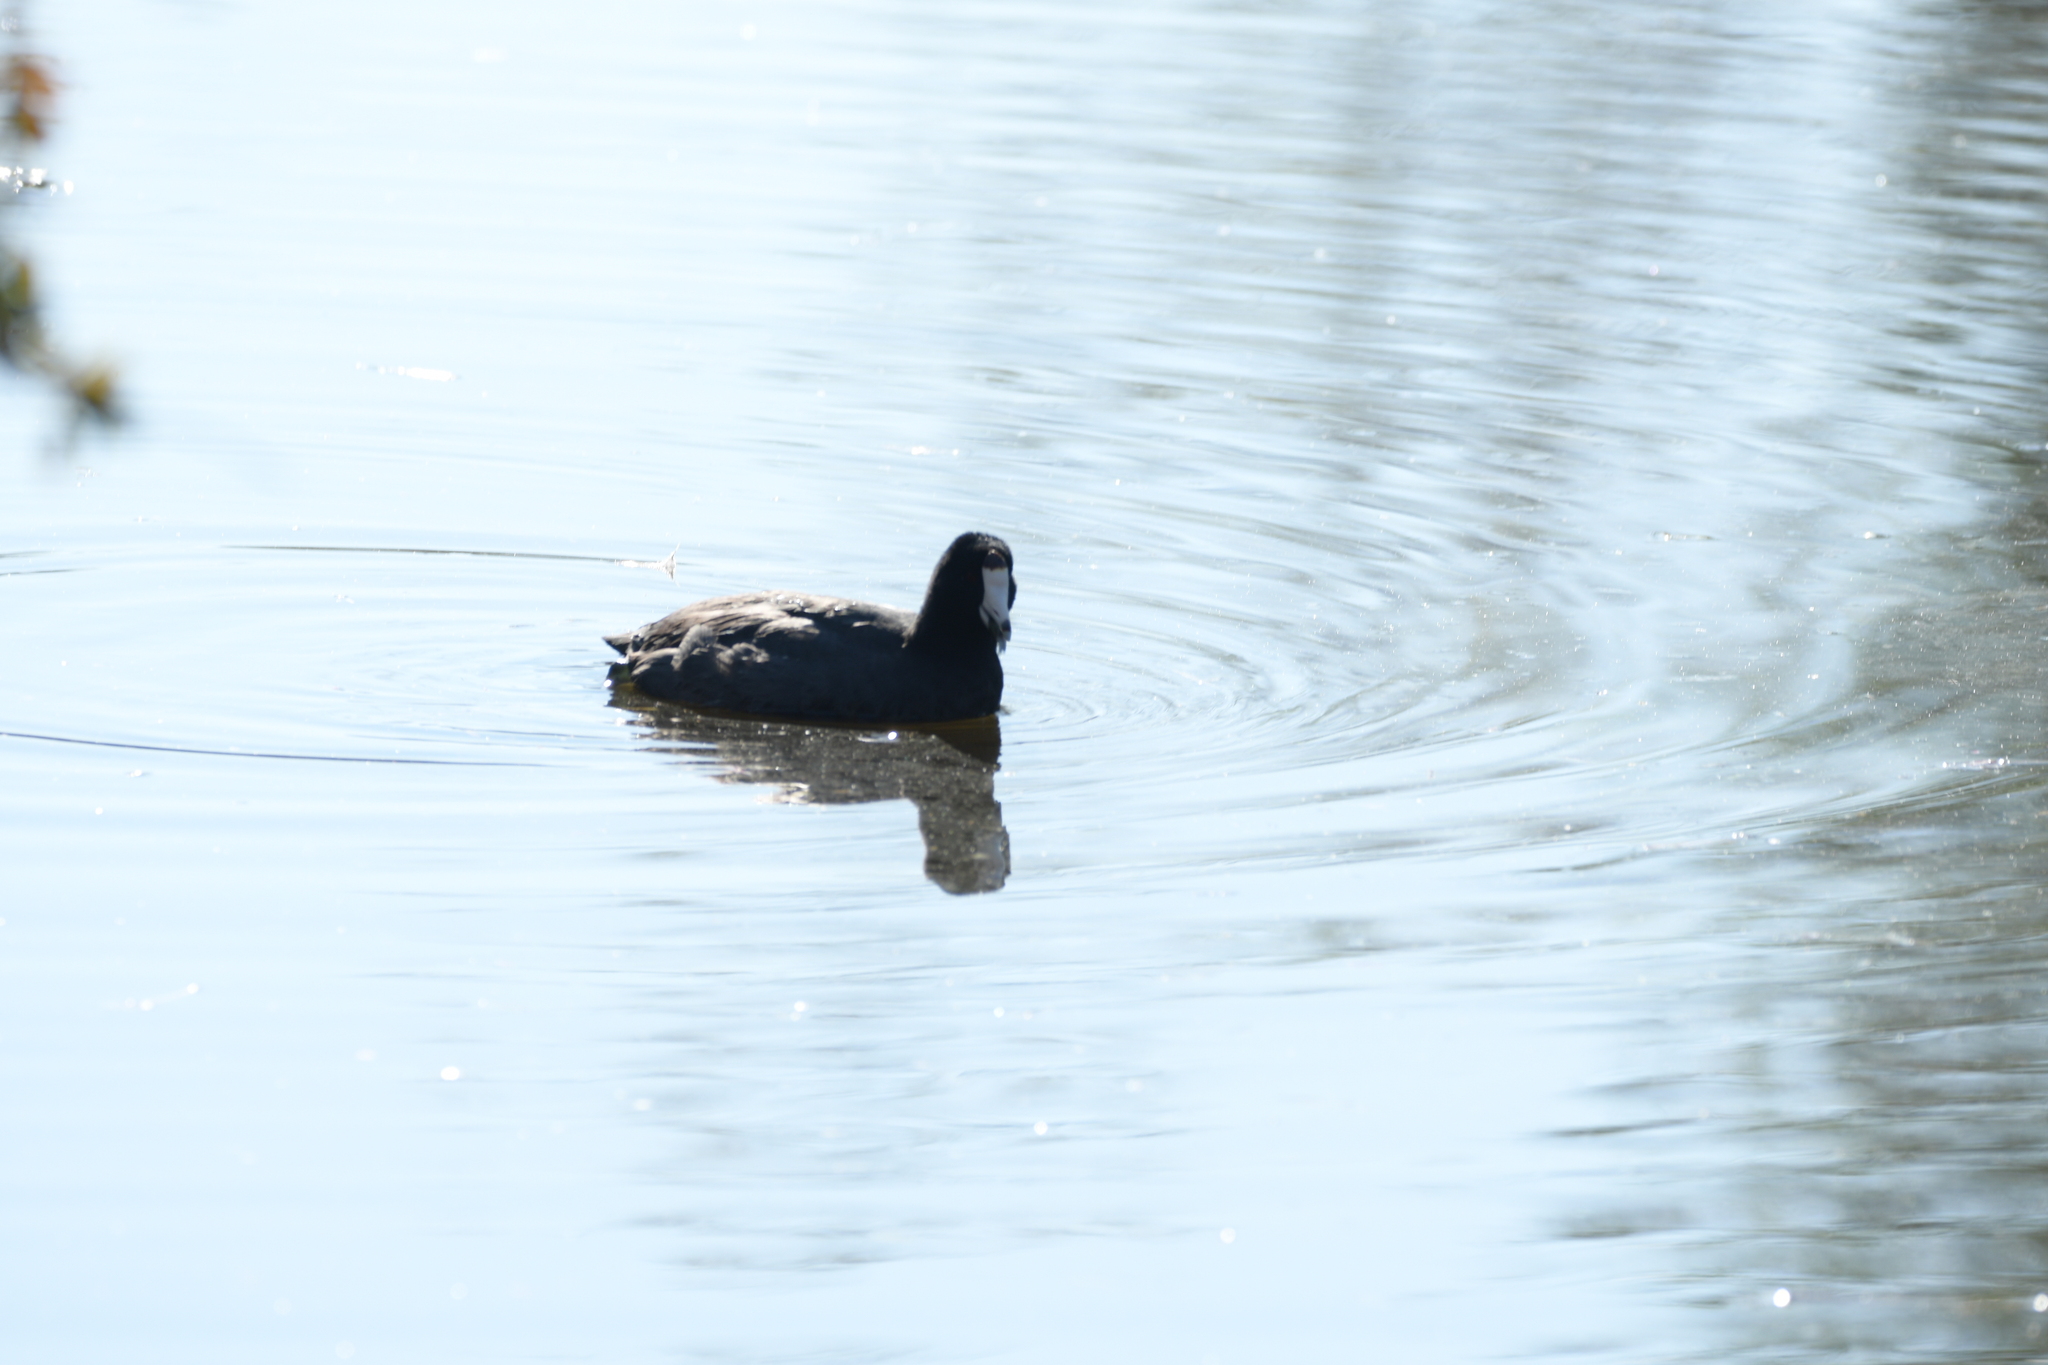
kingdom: Animalia
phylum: Chordata
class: Aves
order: Gruiformes
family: Rallidae
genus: Fulica
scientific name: Fulica americana
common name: American coot
